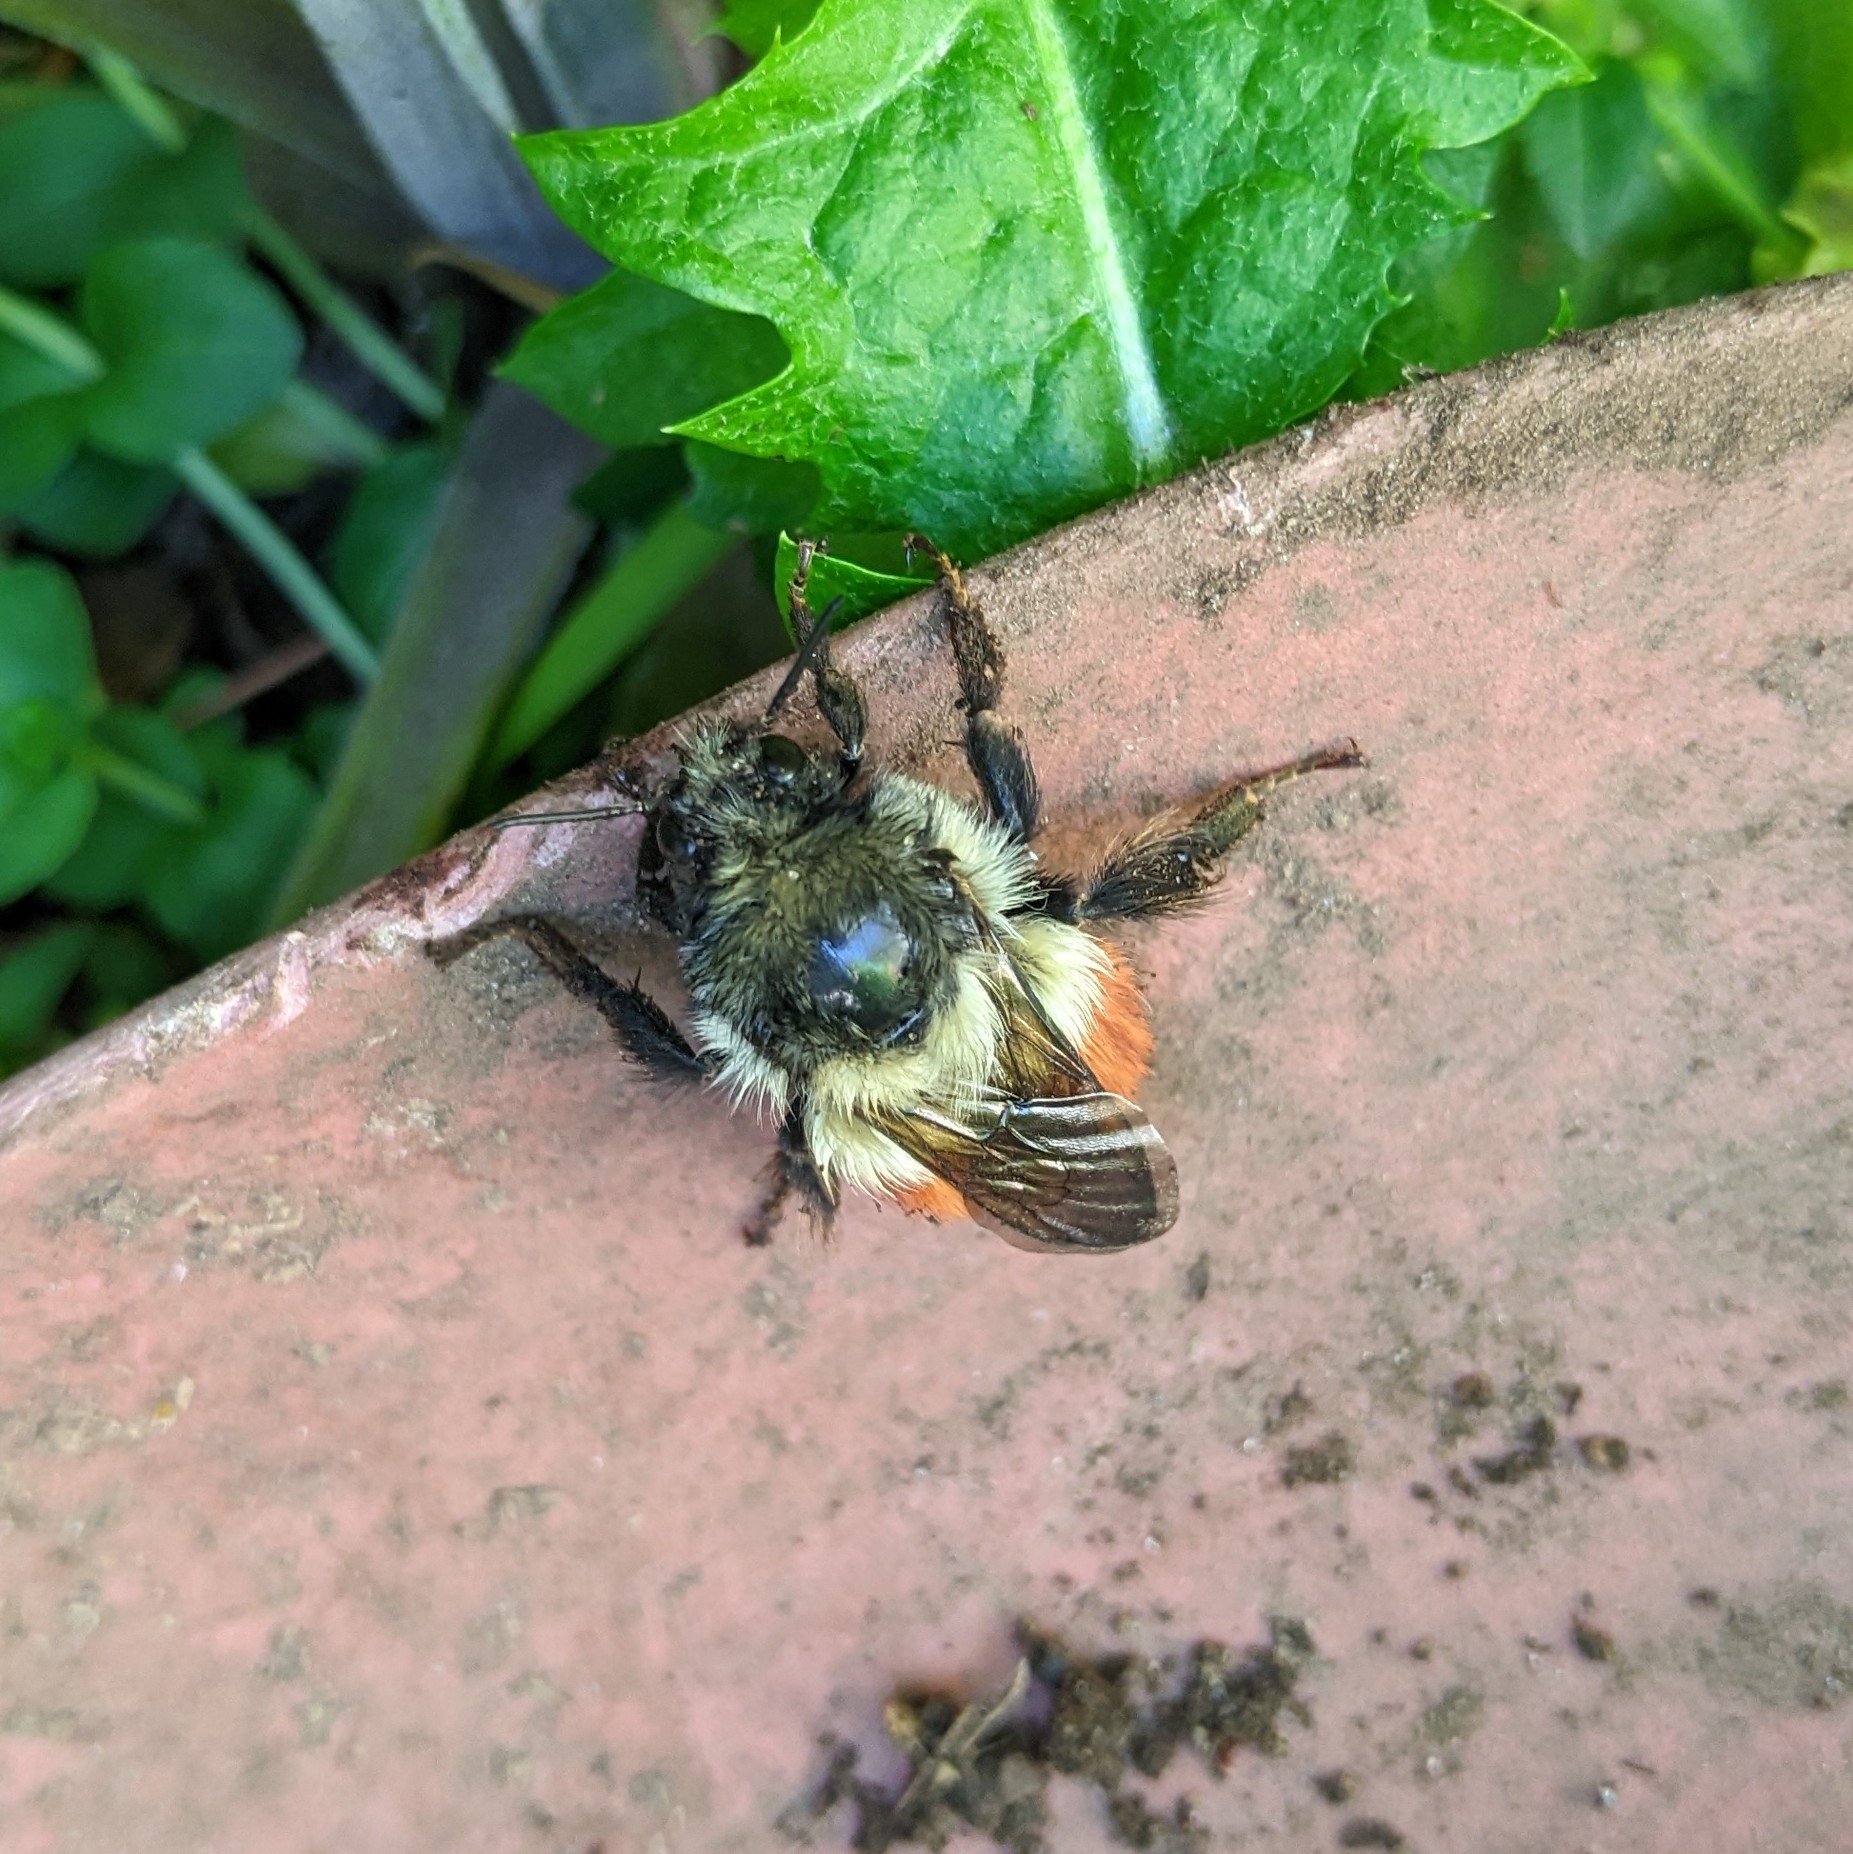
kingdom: Animalia
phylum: Arthropoda
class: Insecta
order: Hymenoptera
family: Apidae
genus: Bombus
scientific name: Bombus melanopygus
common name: Black tail bumble bee
